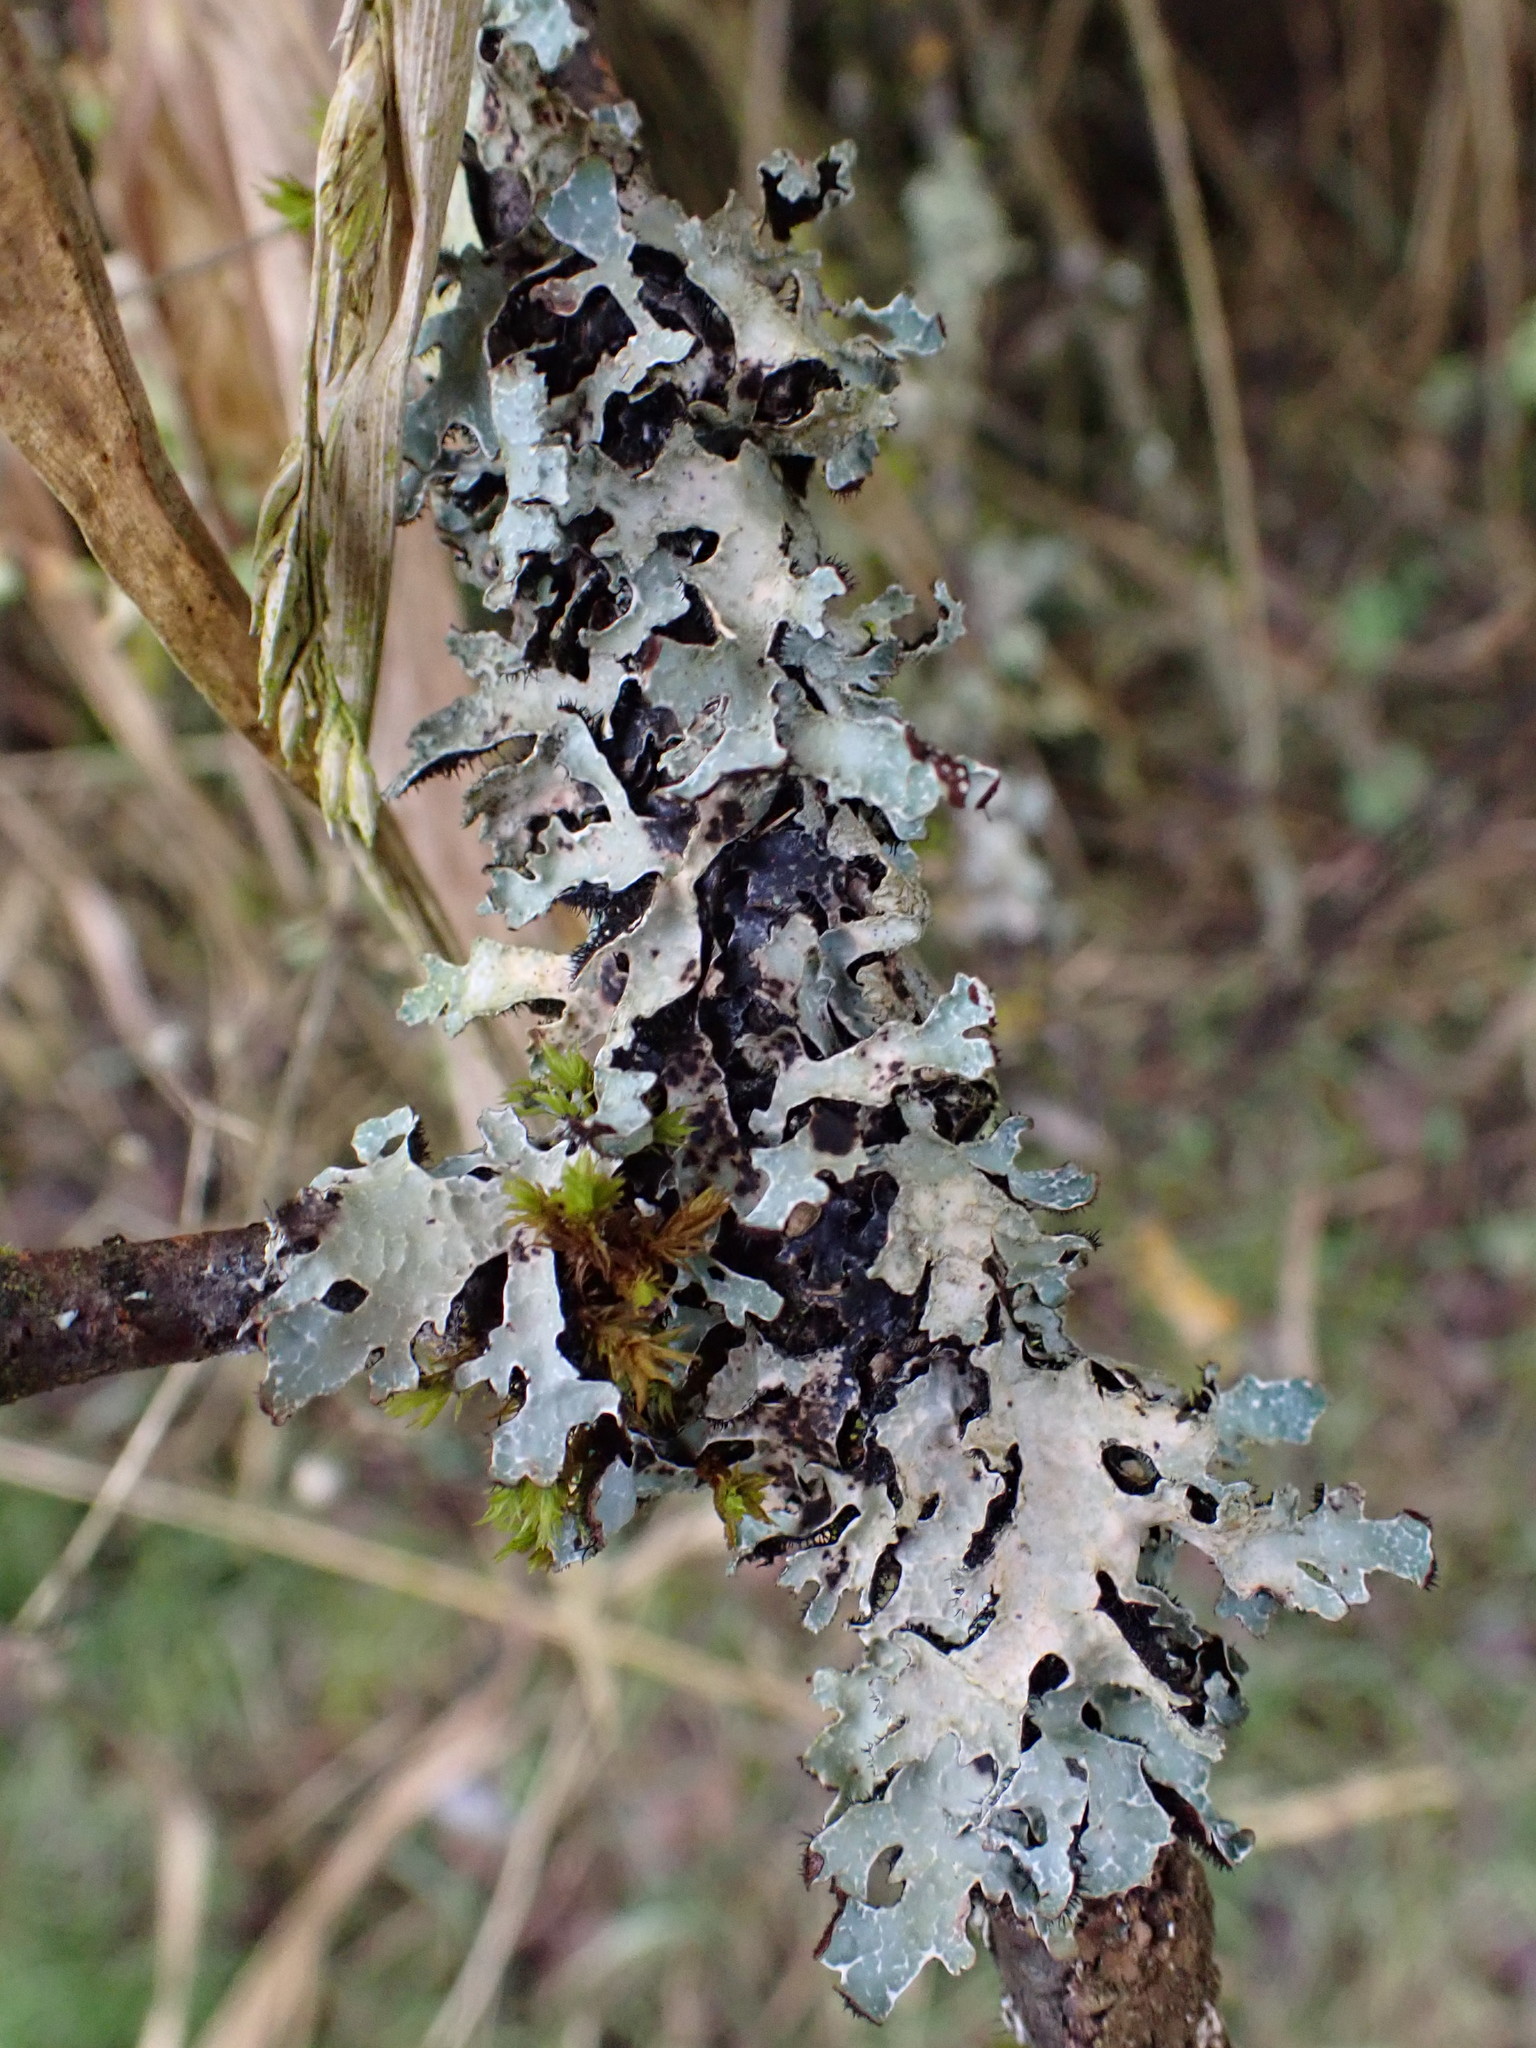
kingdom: Fungi
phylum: Ascomycota
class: Lecanoromycetes
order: Lecanorales
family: Parmeliaceae
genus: Parmelia
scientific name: Parmelia sulcata
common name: Netted shield lichen
